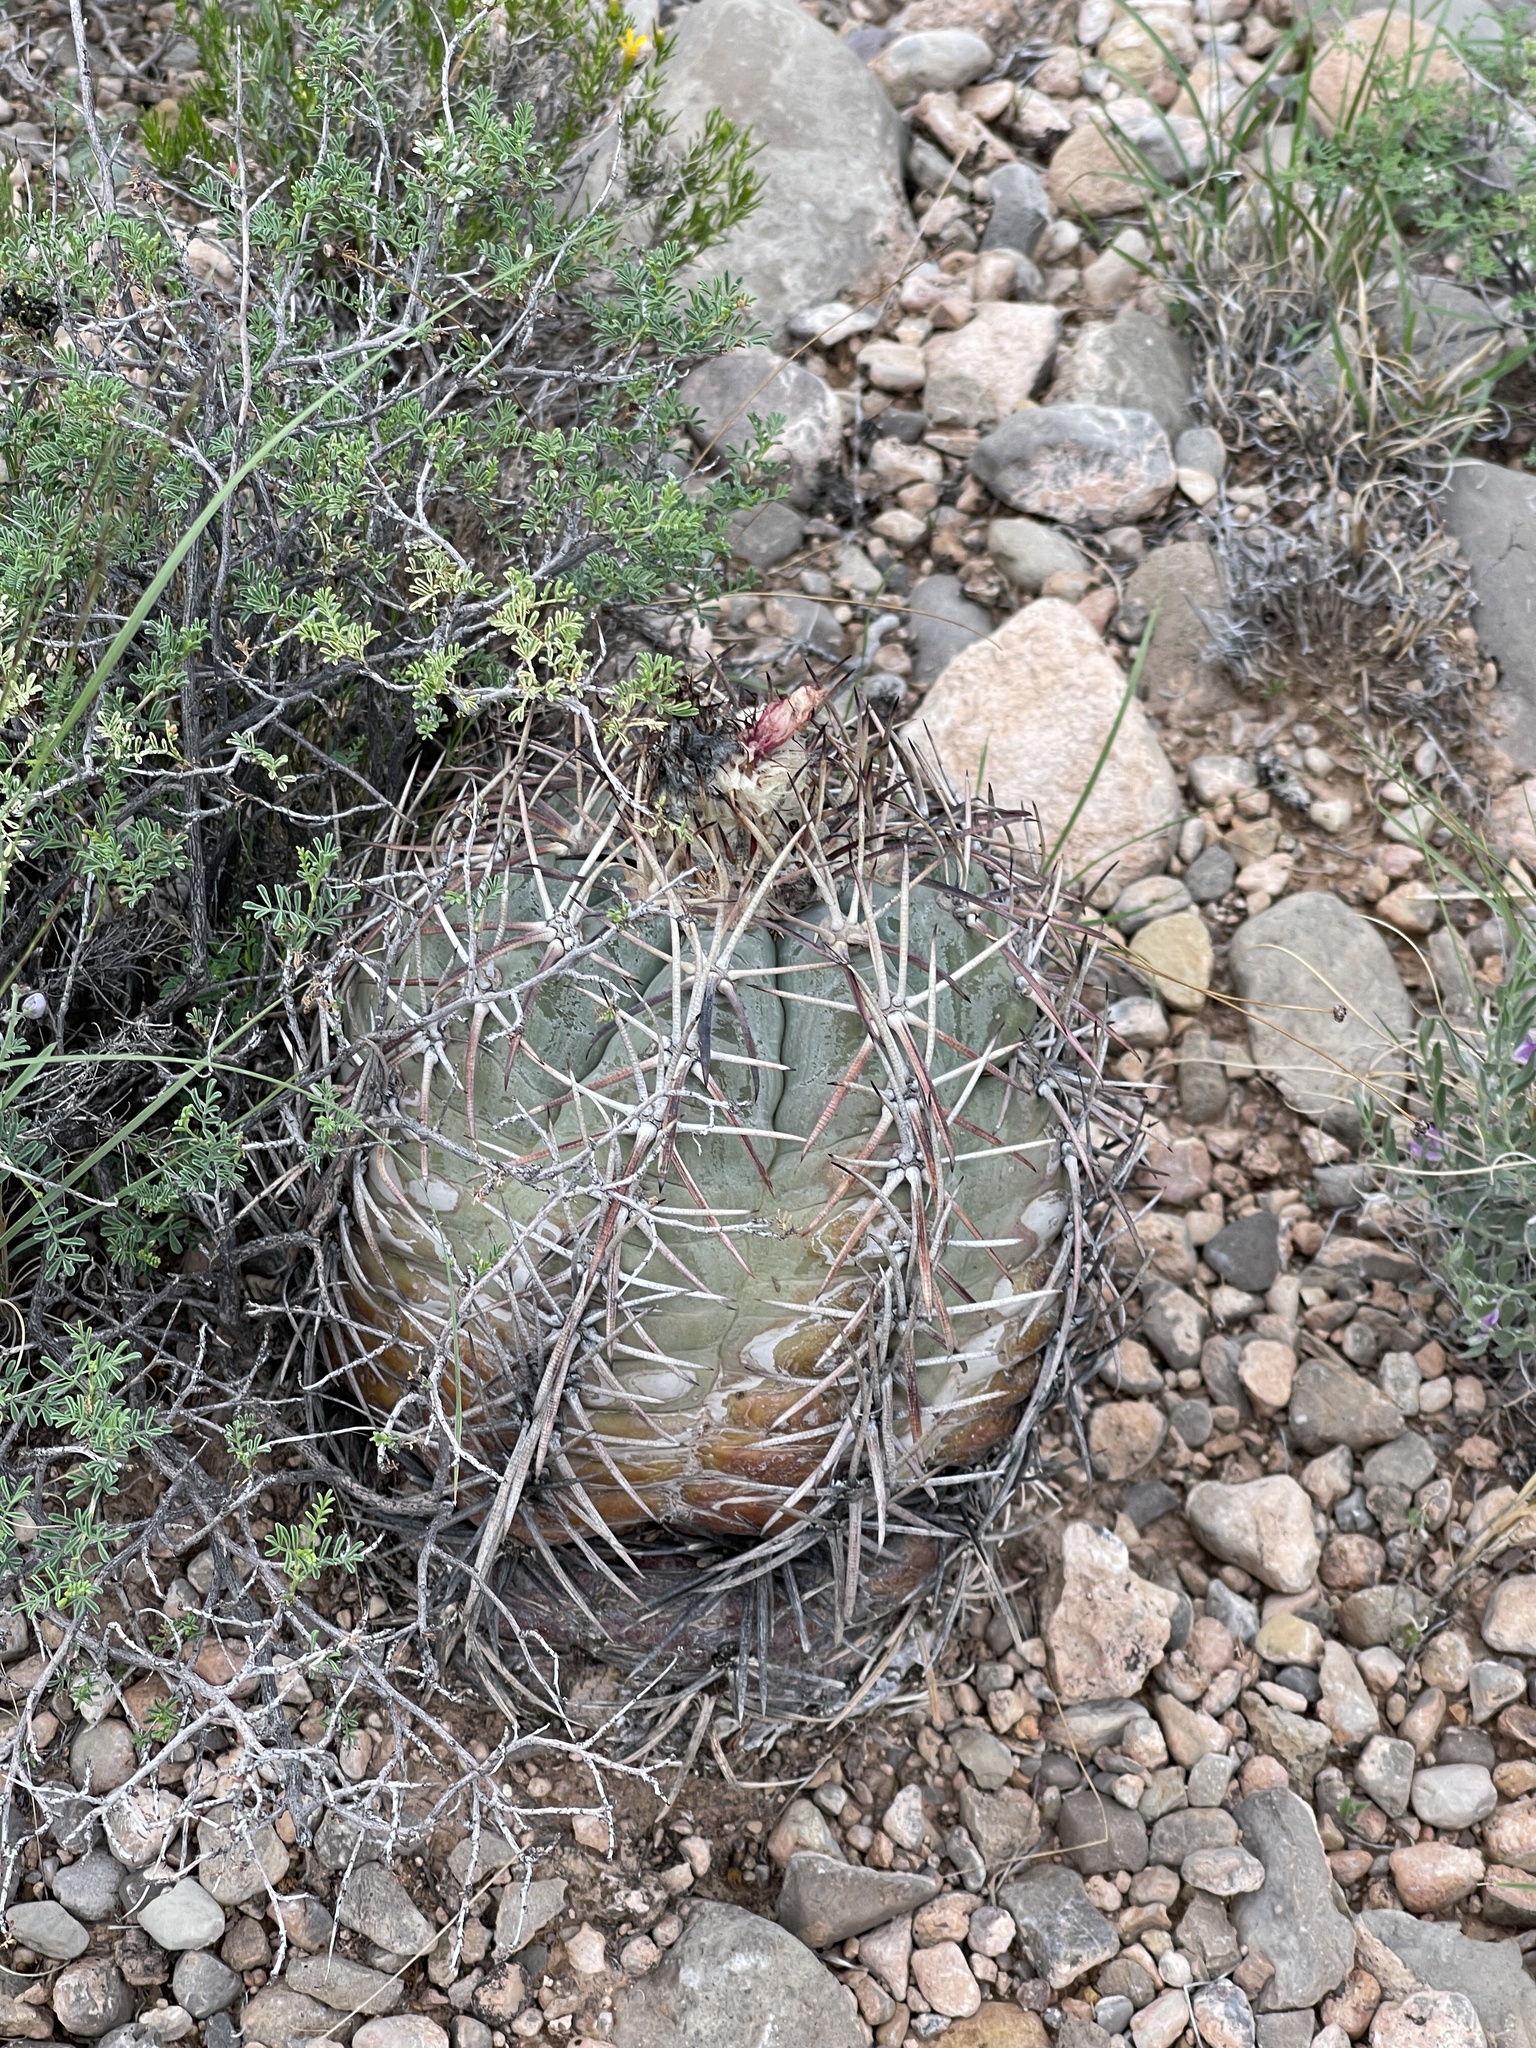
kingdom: Plantae
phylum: Tracheophyta
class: Magnoliopsida
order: Caryophyllales
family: Cactaceae
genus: Echinocactus
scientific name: Echinocactus horizonthalonius
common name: Devilshead
